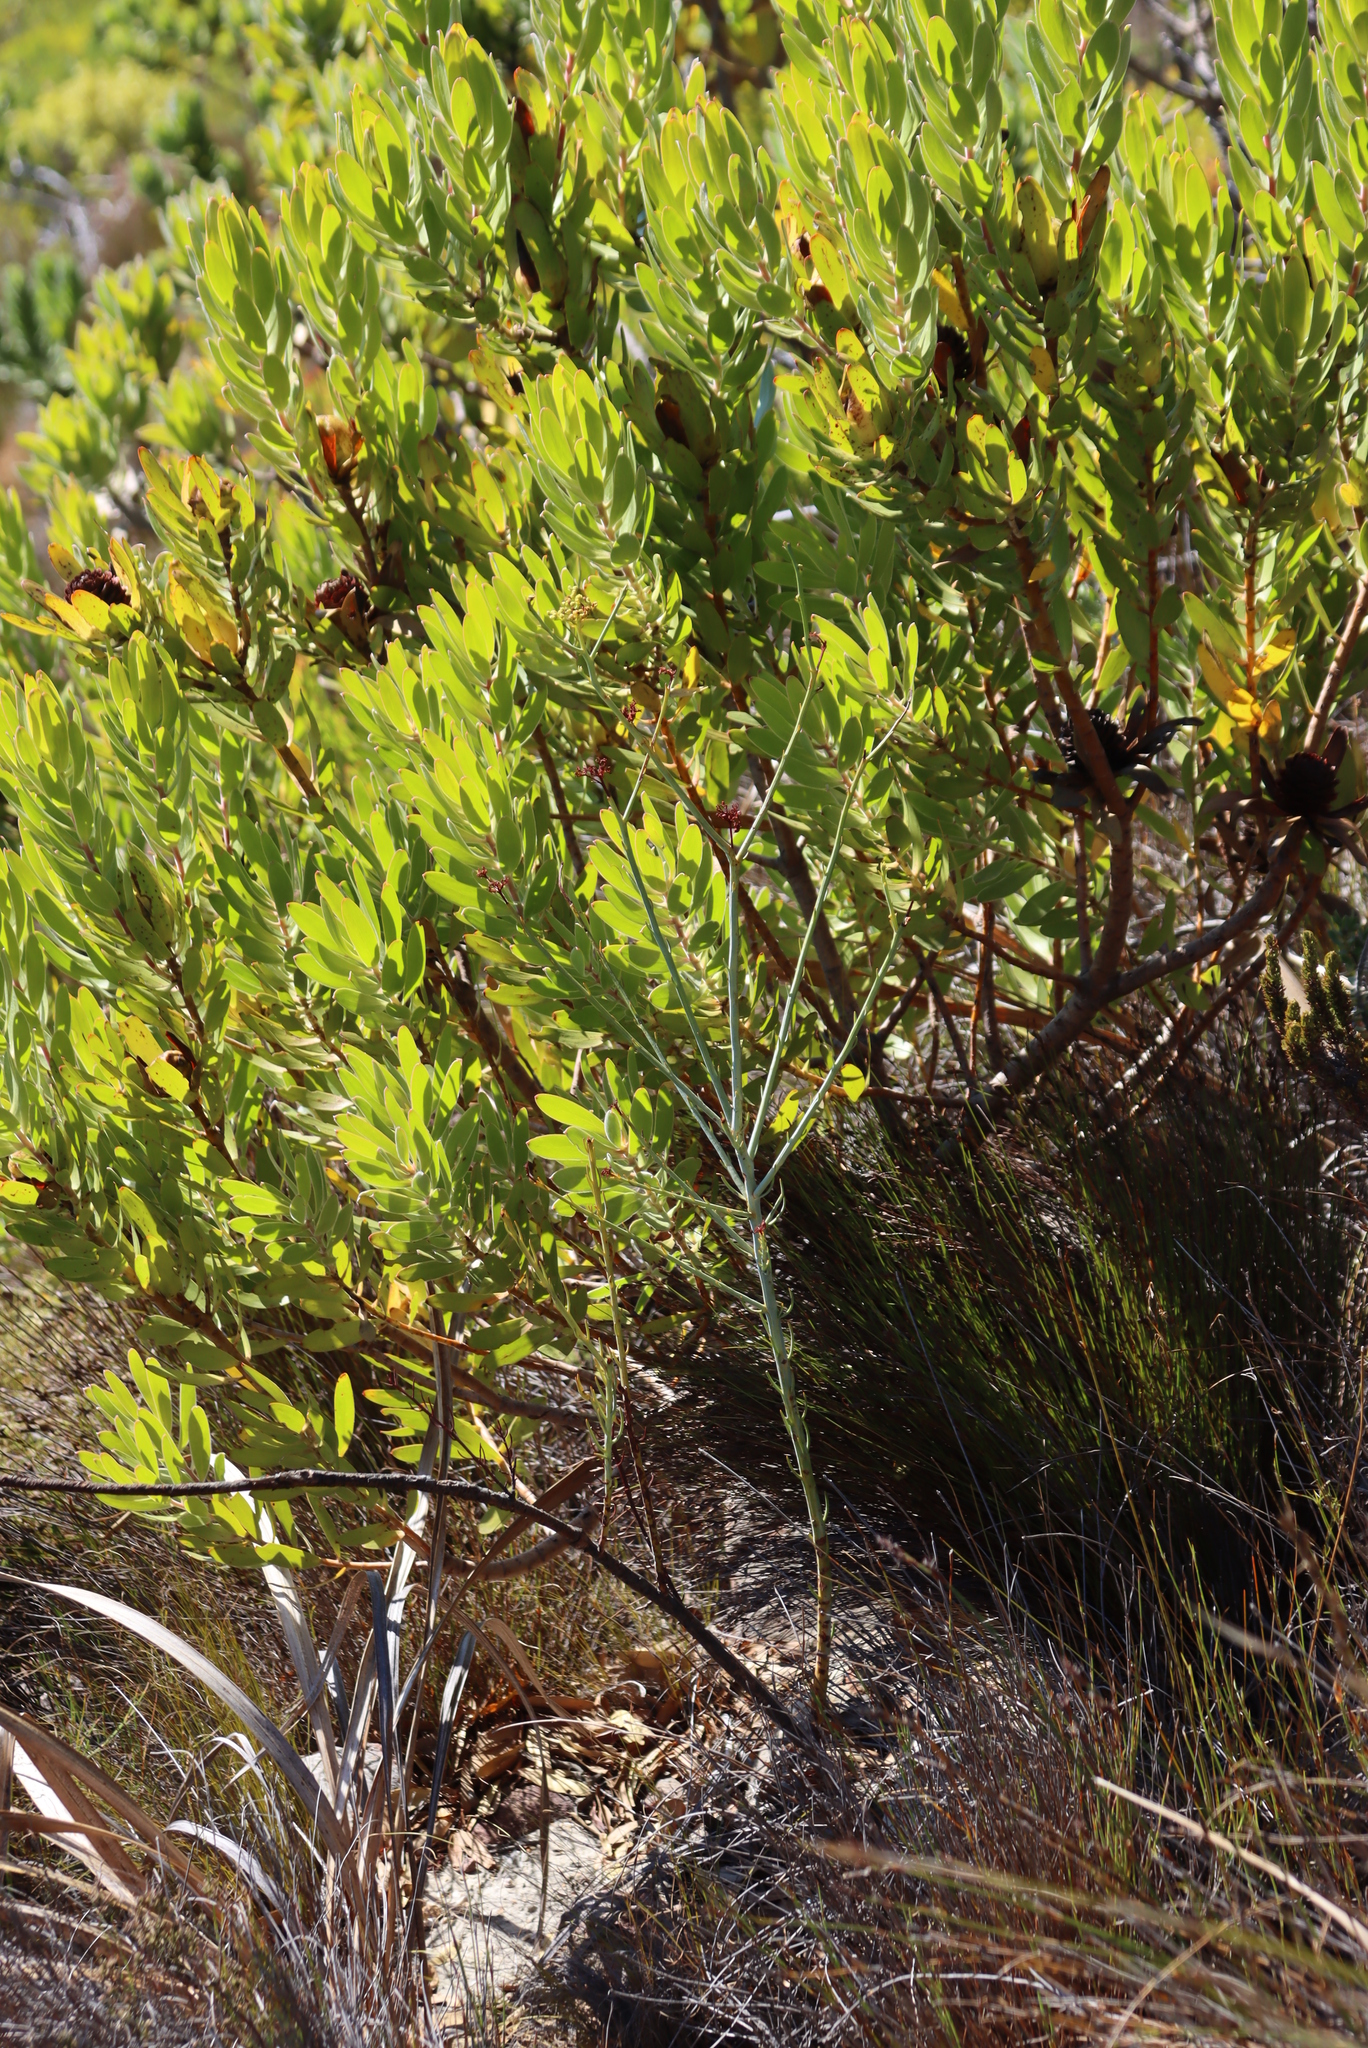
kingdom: Plantae
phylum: Tracheophyta
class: Magnoliopsida
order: Santalales
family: Thesiaceae
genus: Thesium
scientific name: Thesium strictum
